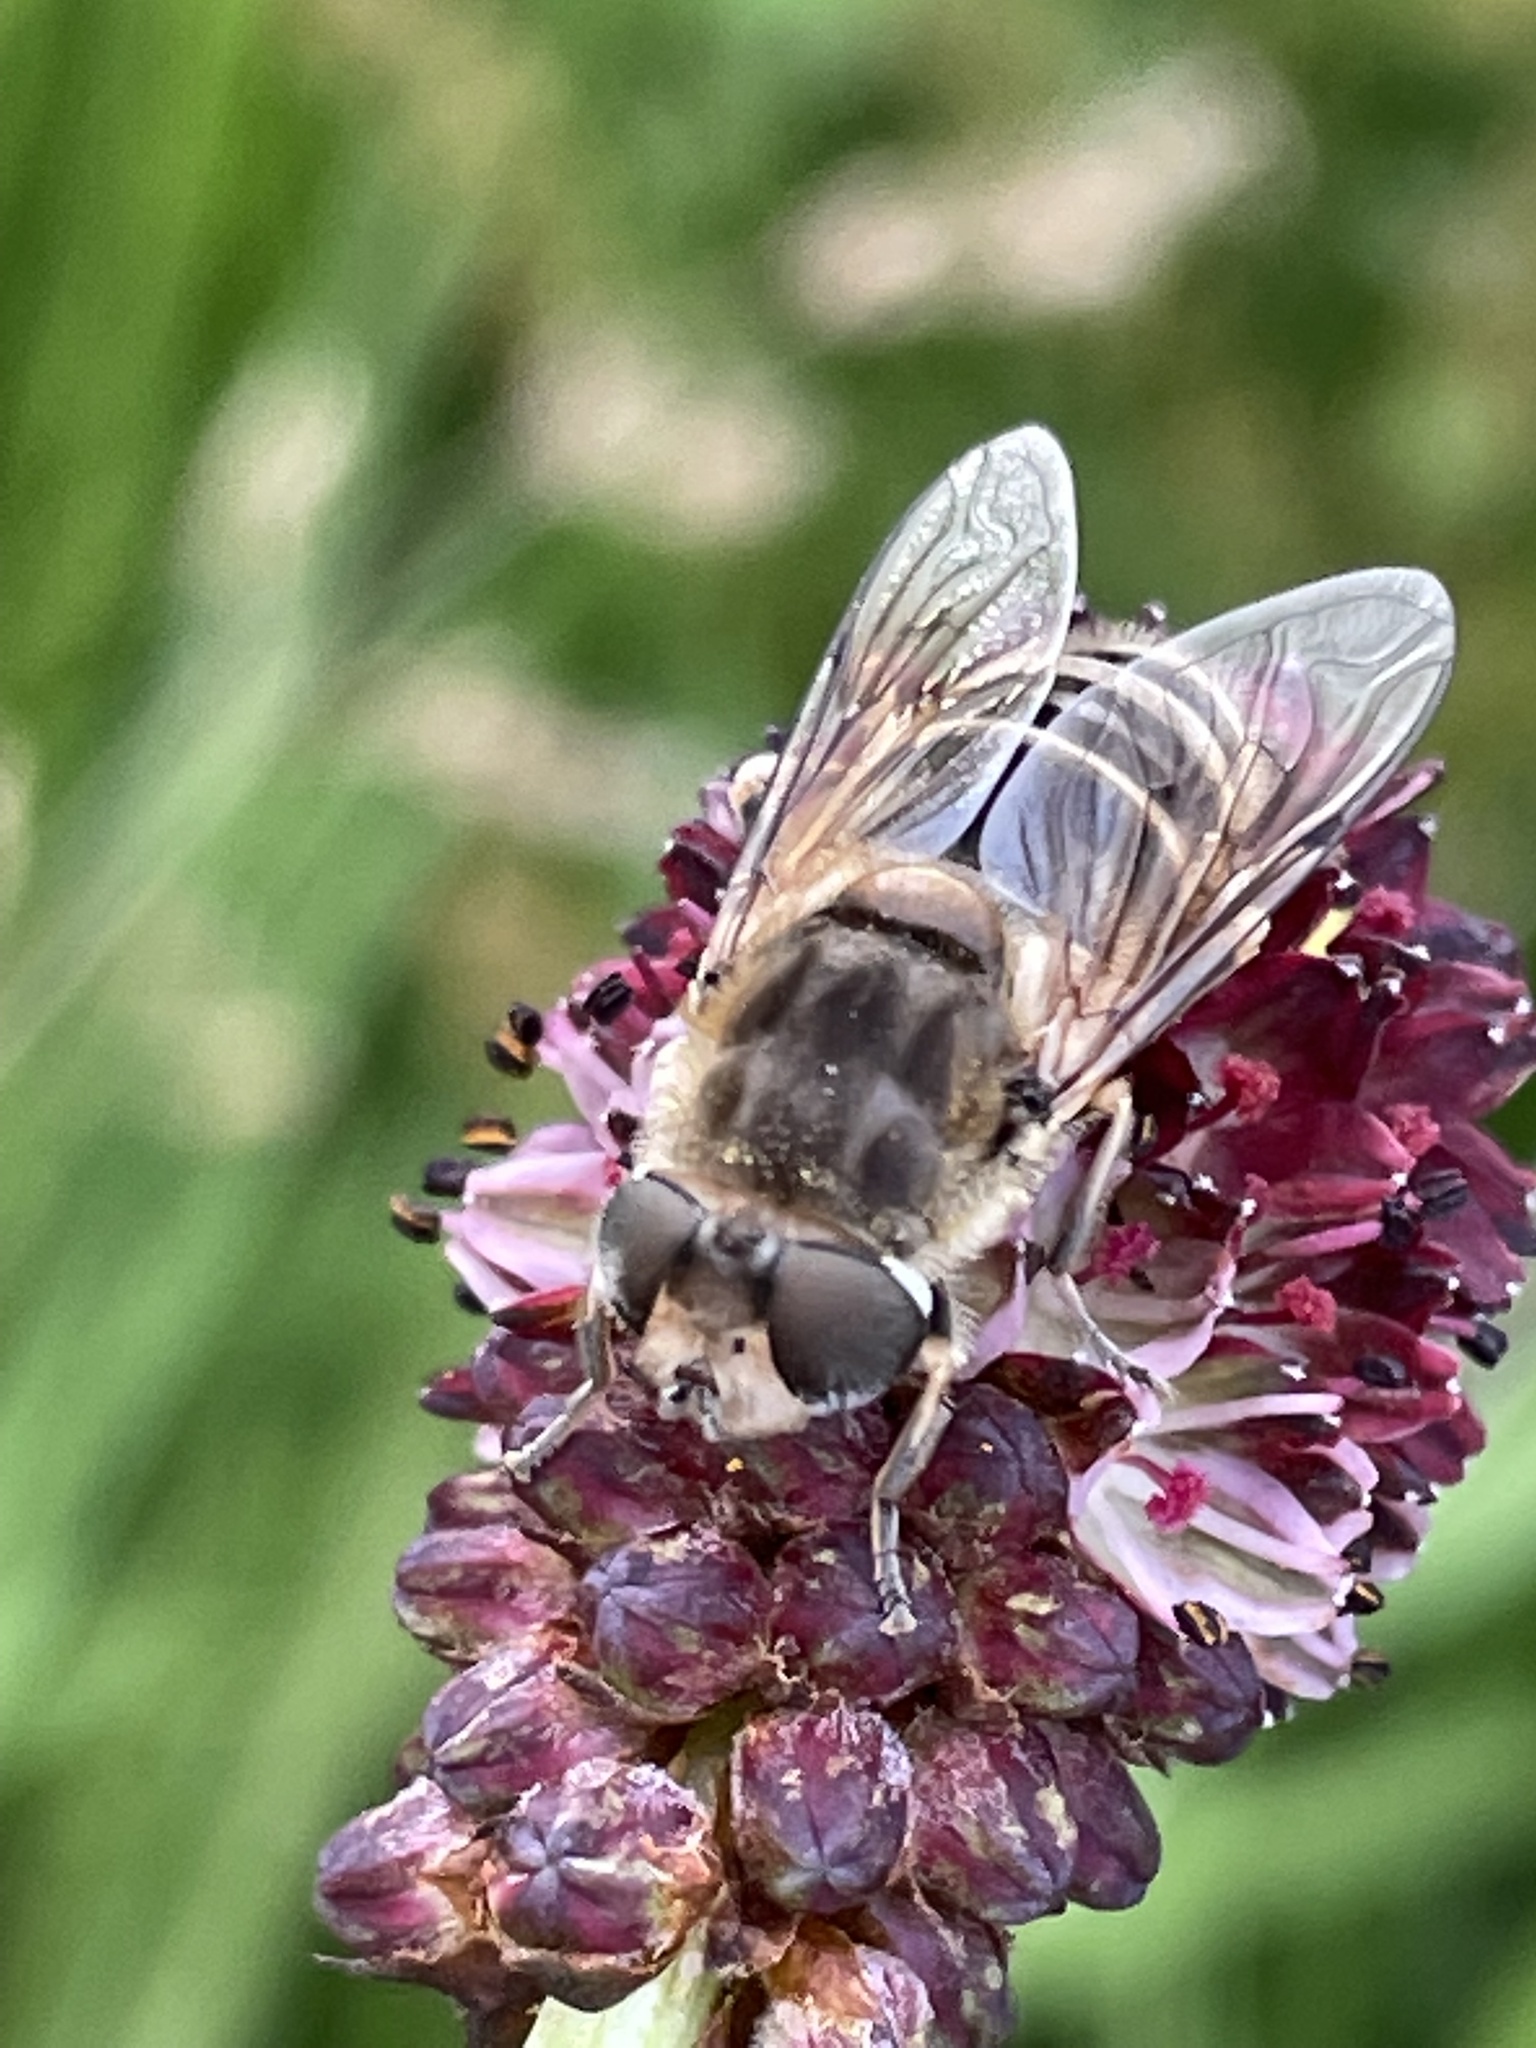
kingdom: Animalia
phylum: Arthropoda
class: Insecta
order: Diptera
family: Syrphidae
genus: Eristalis
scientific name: Eristalis arbustorum
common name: Hover fly
